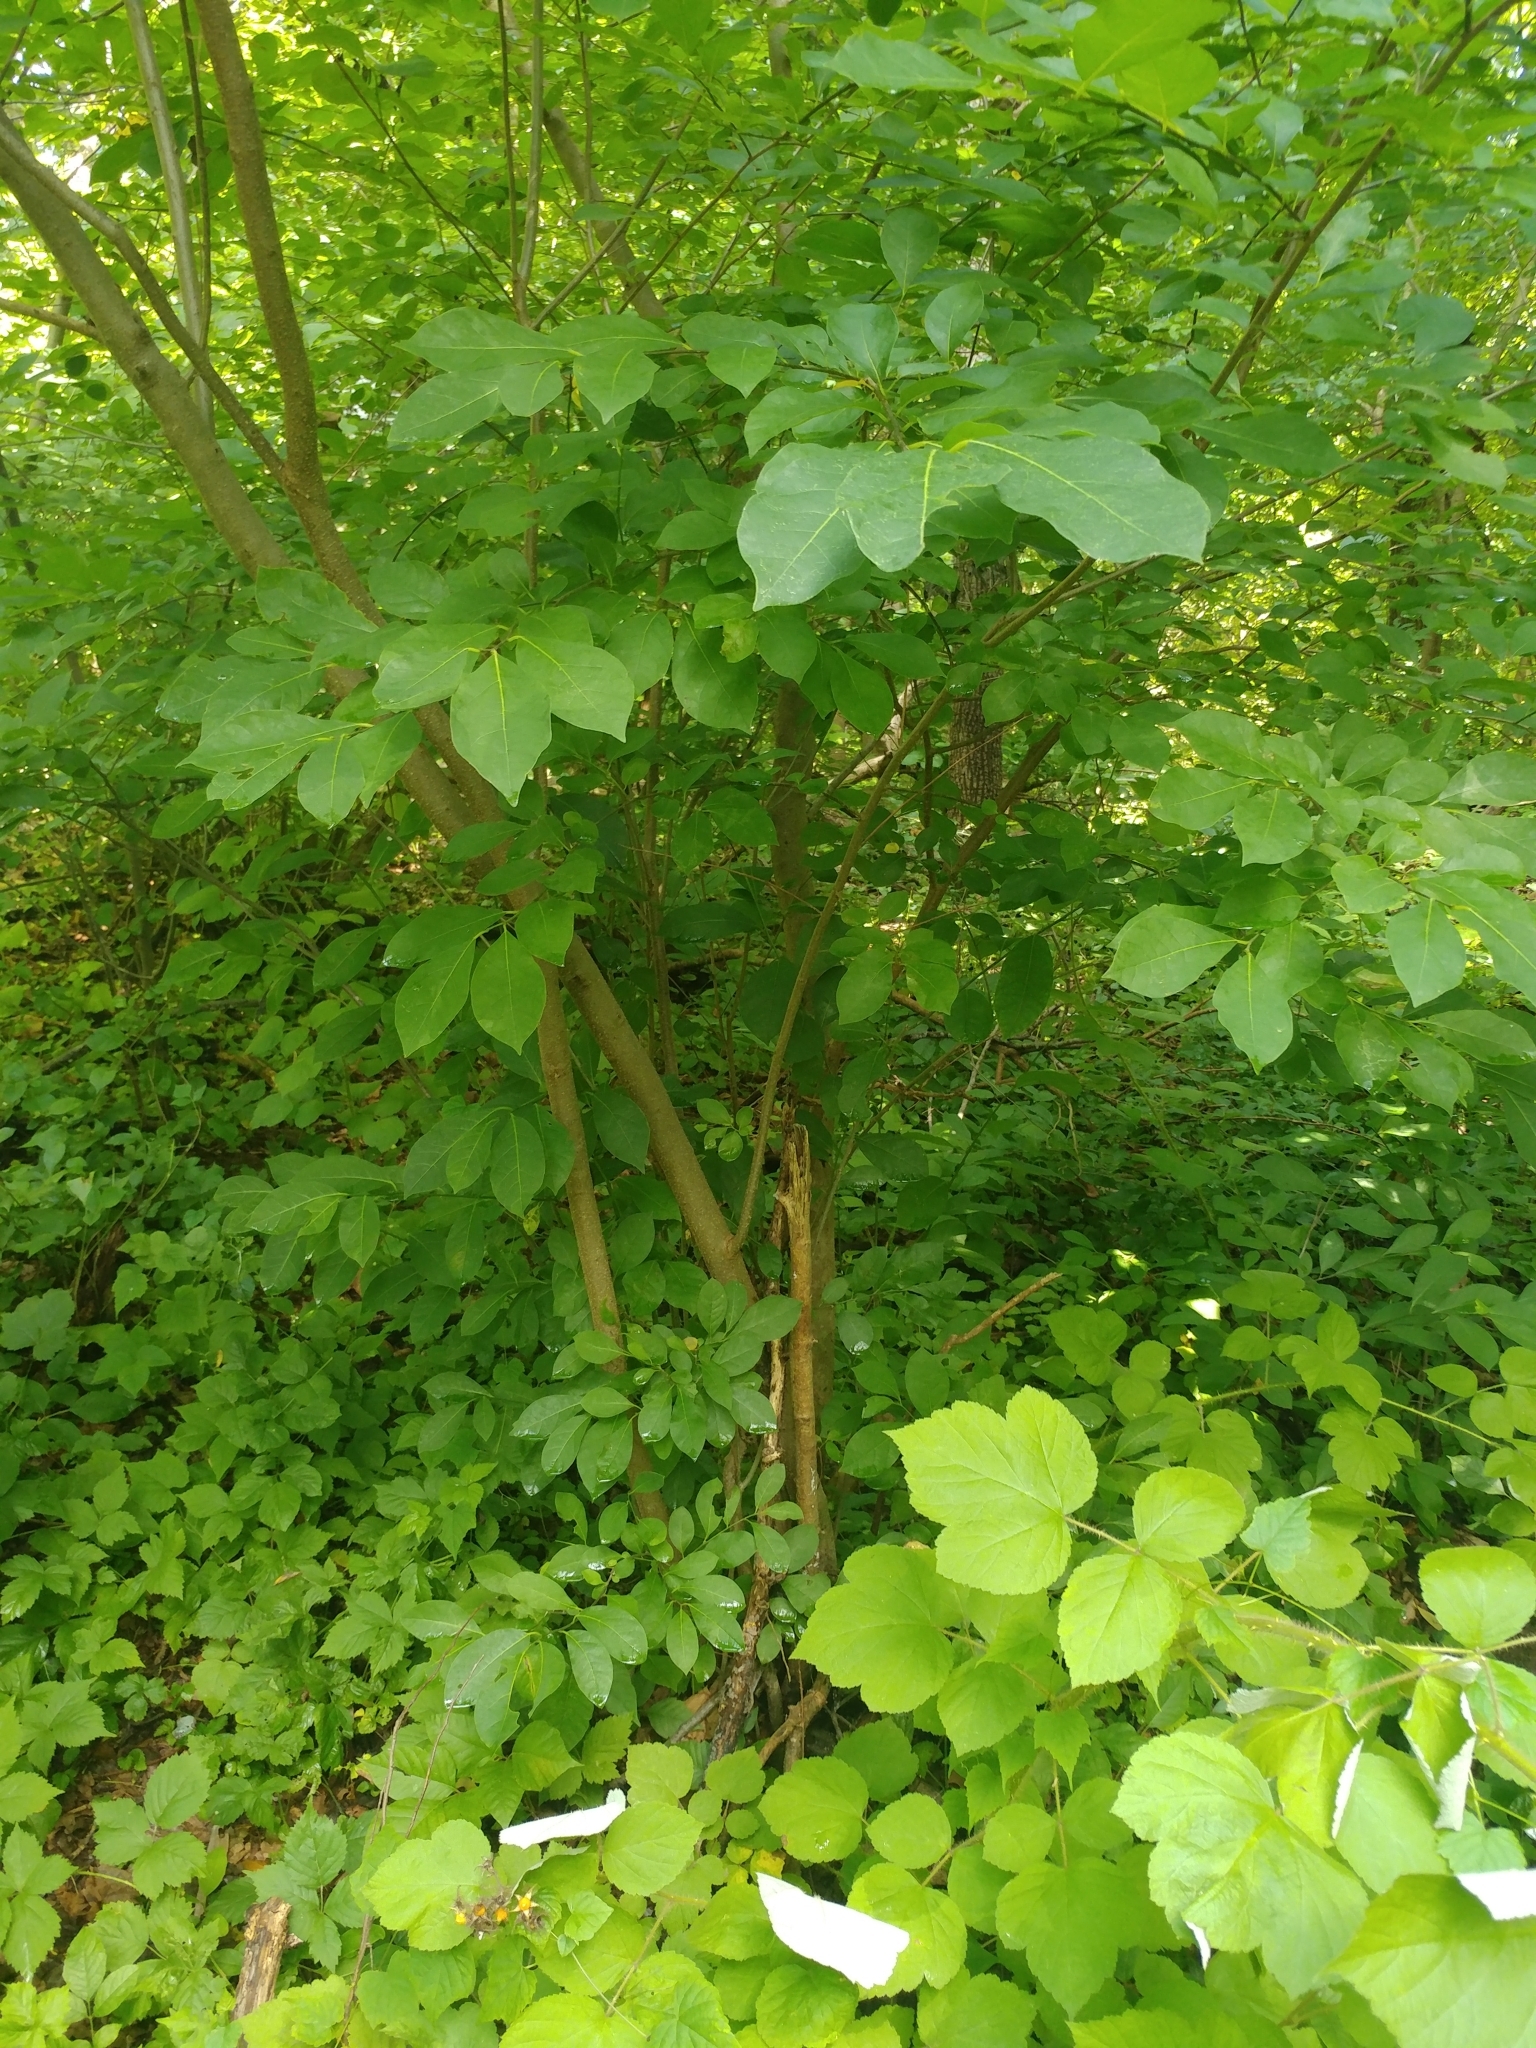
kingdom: Plantae
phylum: Tracheophyta
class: Magnoliopsida
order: Laurales
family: Lauraceae
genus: Lindera
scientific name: Lindera benzoin
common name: Spicebush
